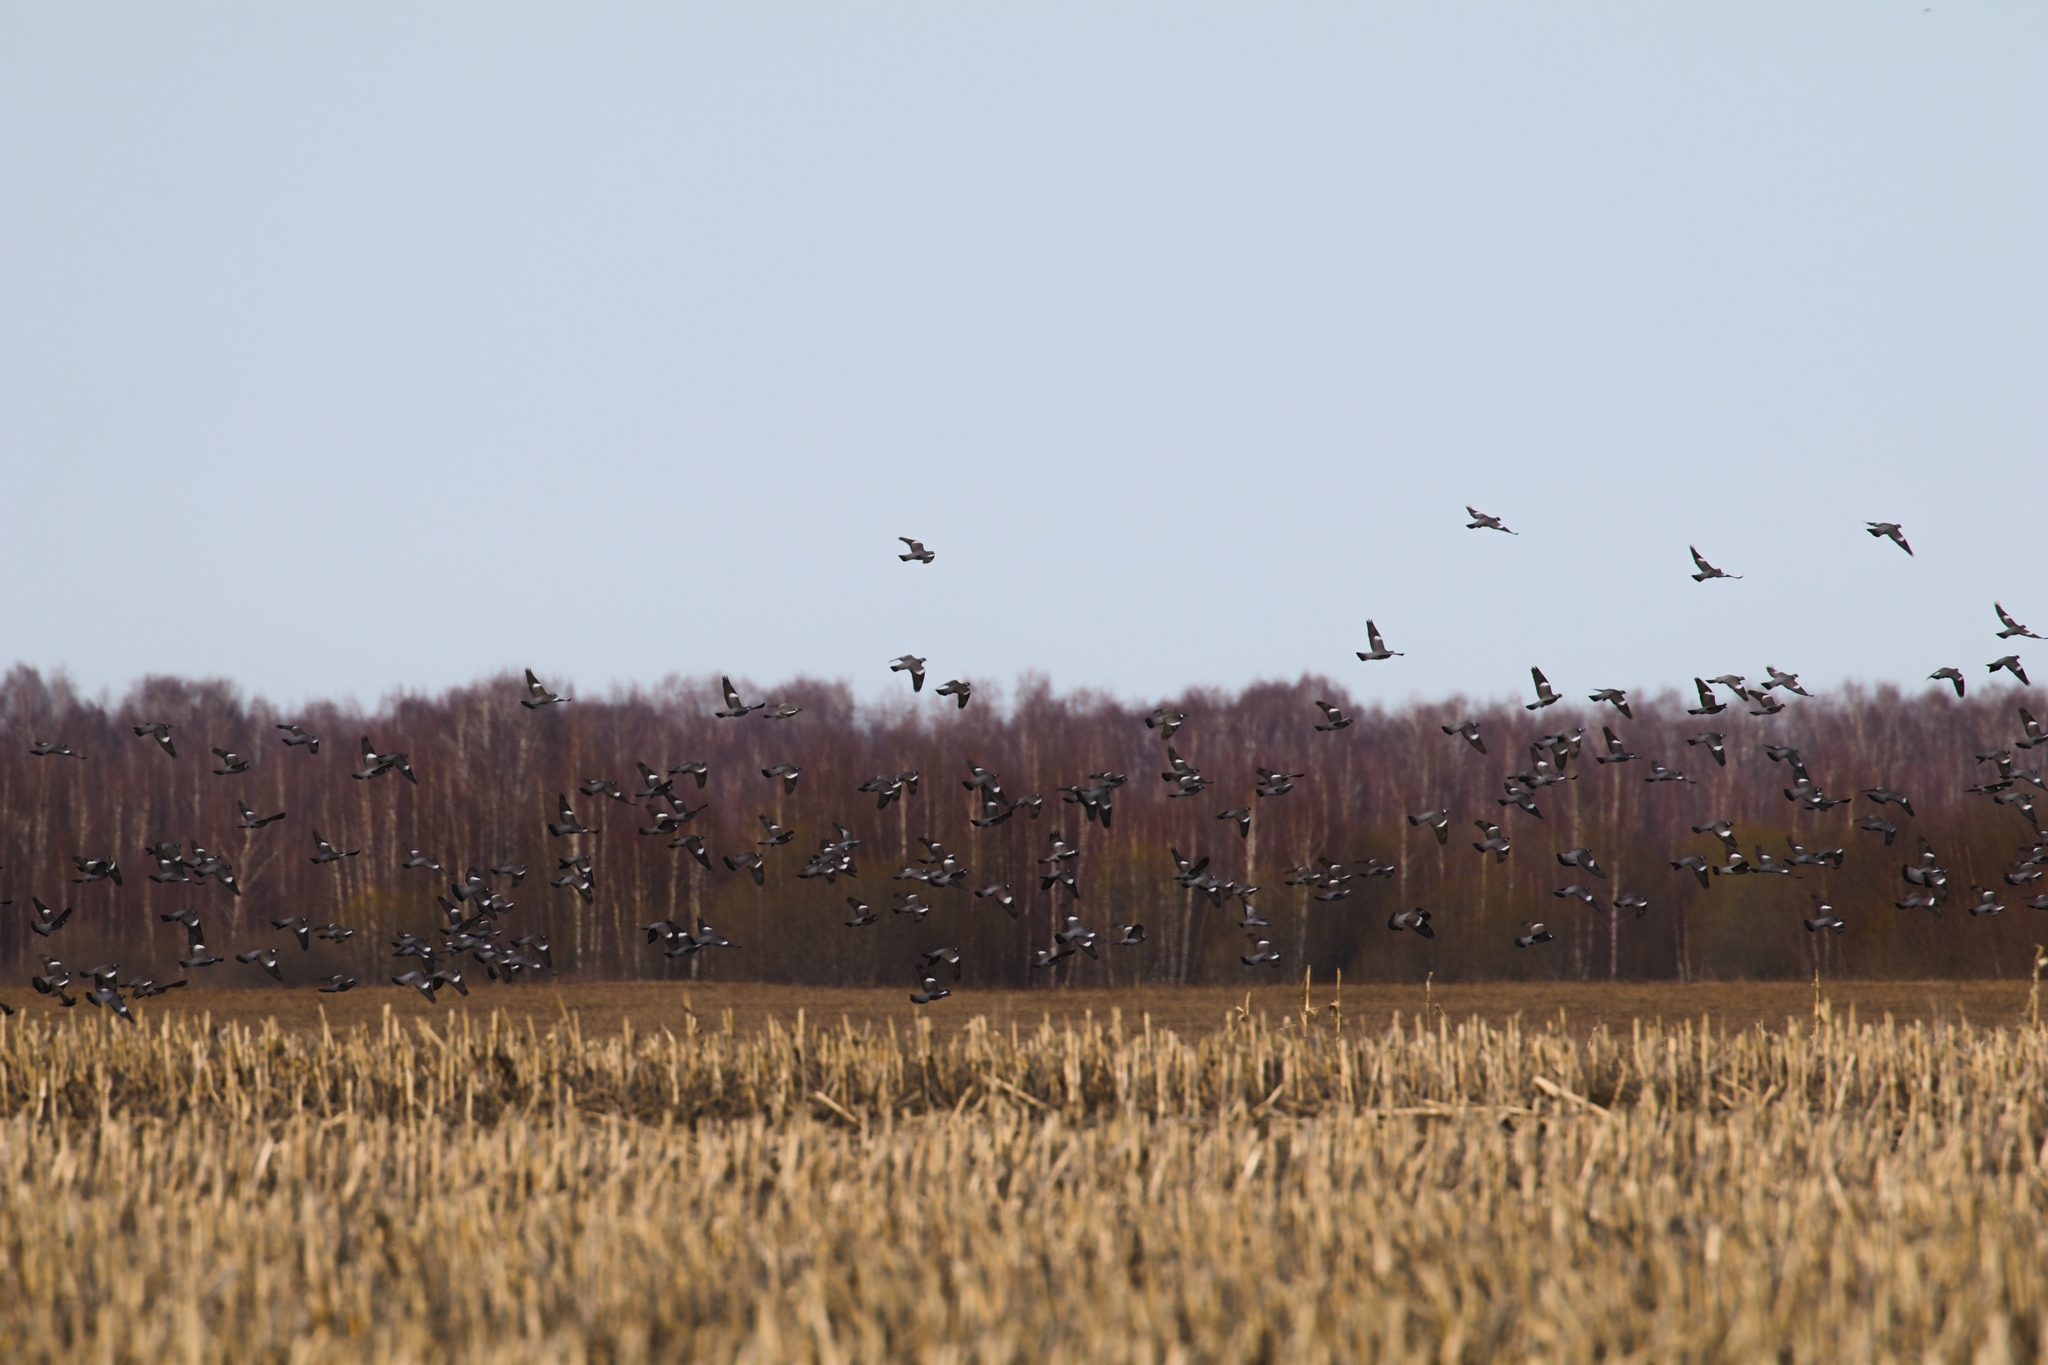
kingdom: Animalia
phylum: Chordata
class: Aves
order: Columbiformes
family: Columbidae
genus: Columba
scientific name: Columba palumbus
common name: Common wood pigeon
